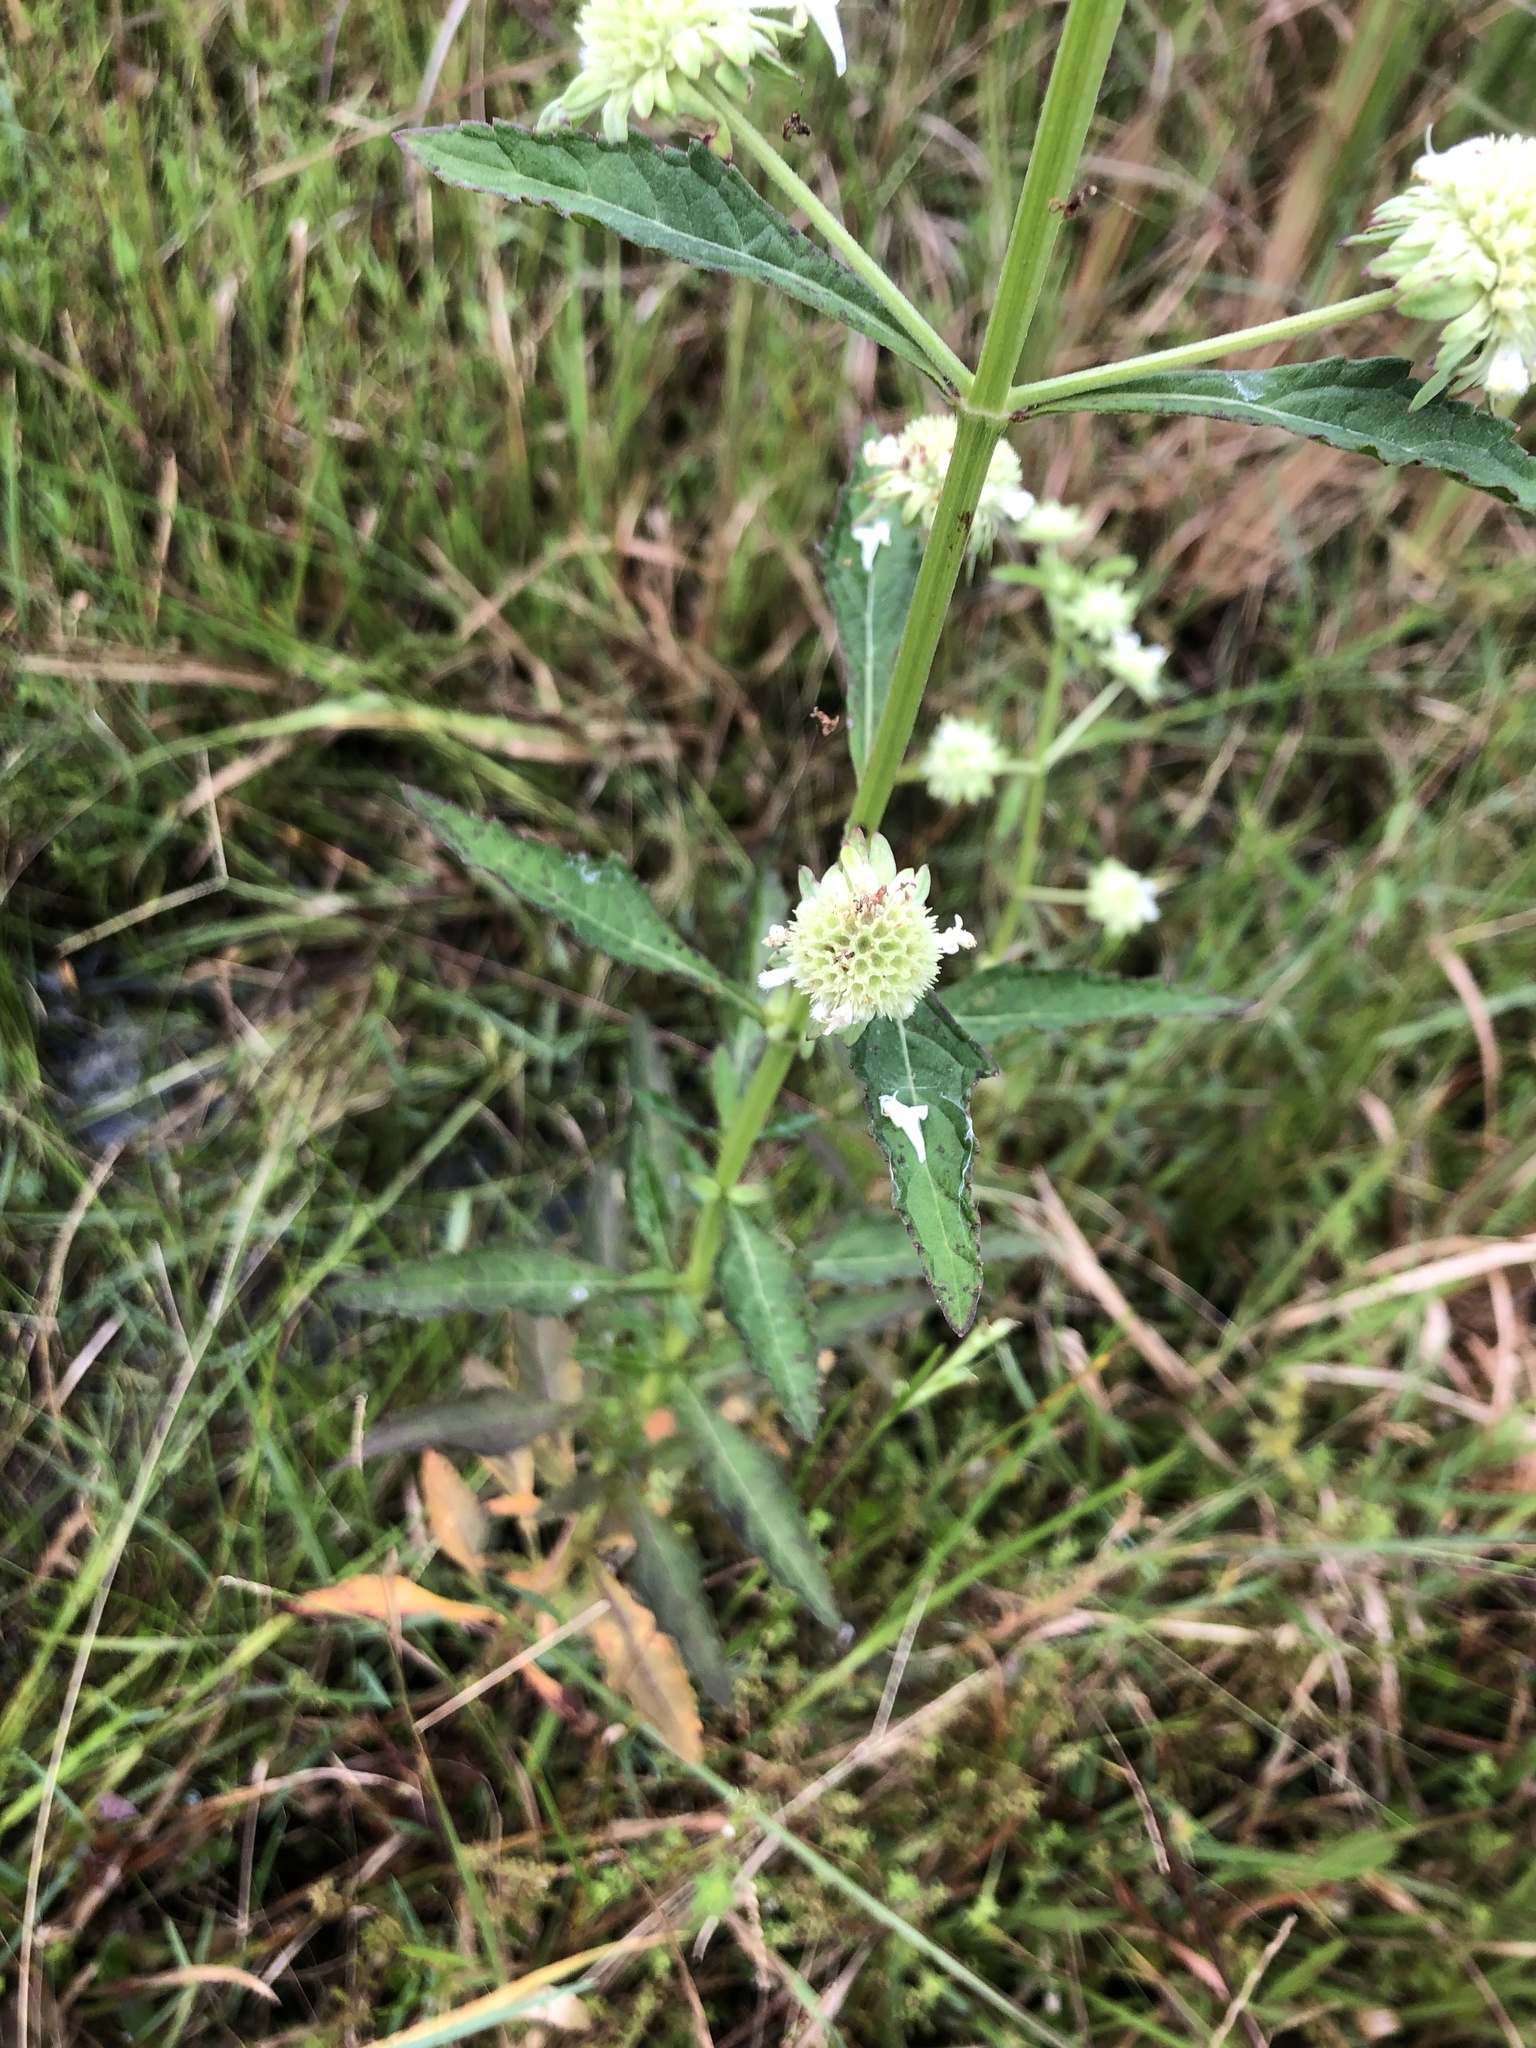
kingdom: Plantae
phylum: Tracheophyta
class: Magnoliopsida
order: Lamiales
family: Lamiaceae
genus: Hyptis
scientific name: Hyptis alata
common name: Cluster bush-mint
